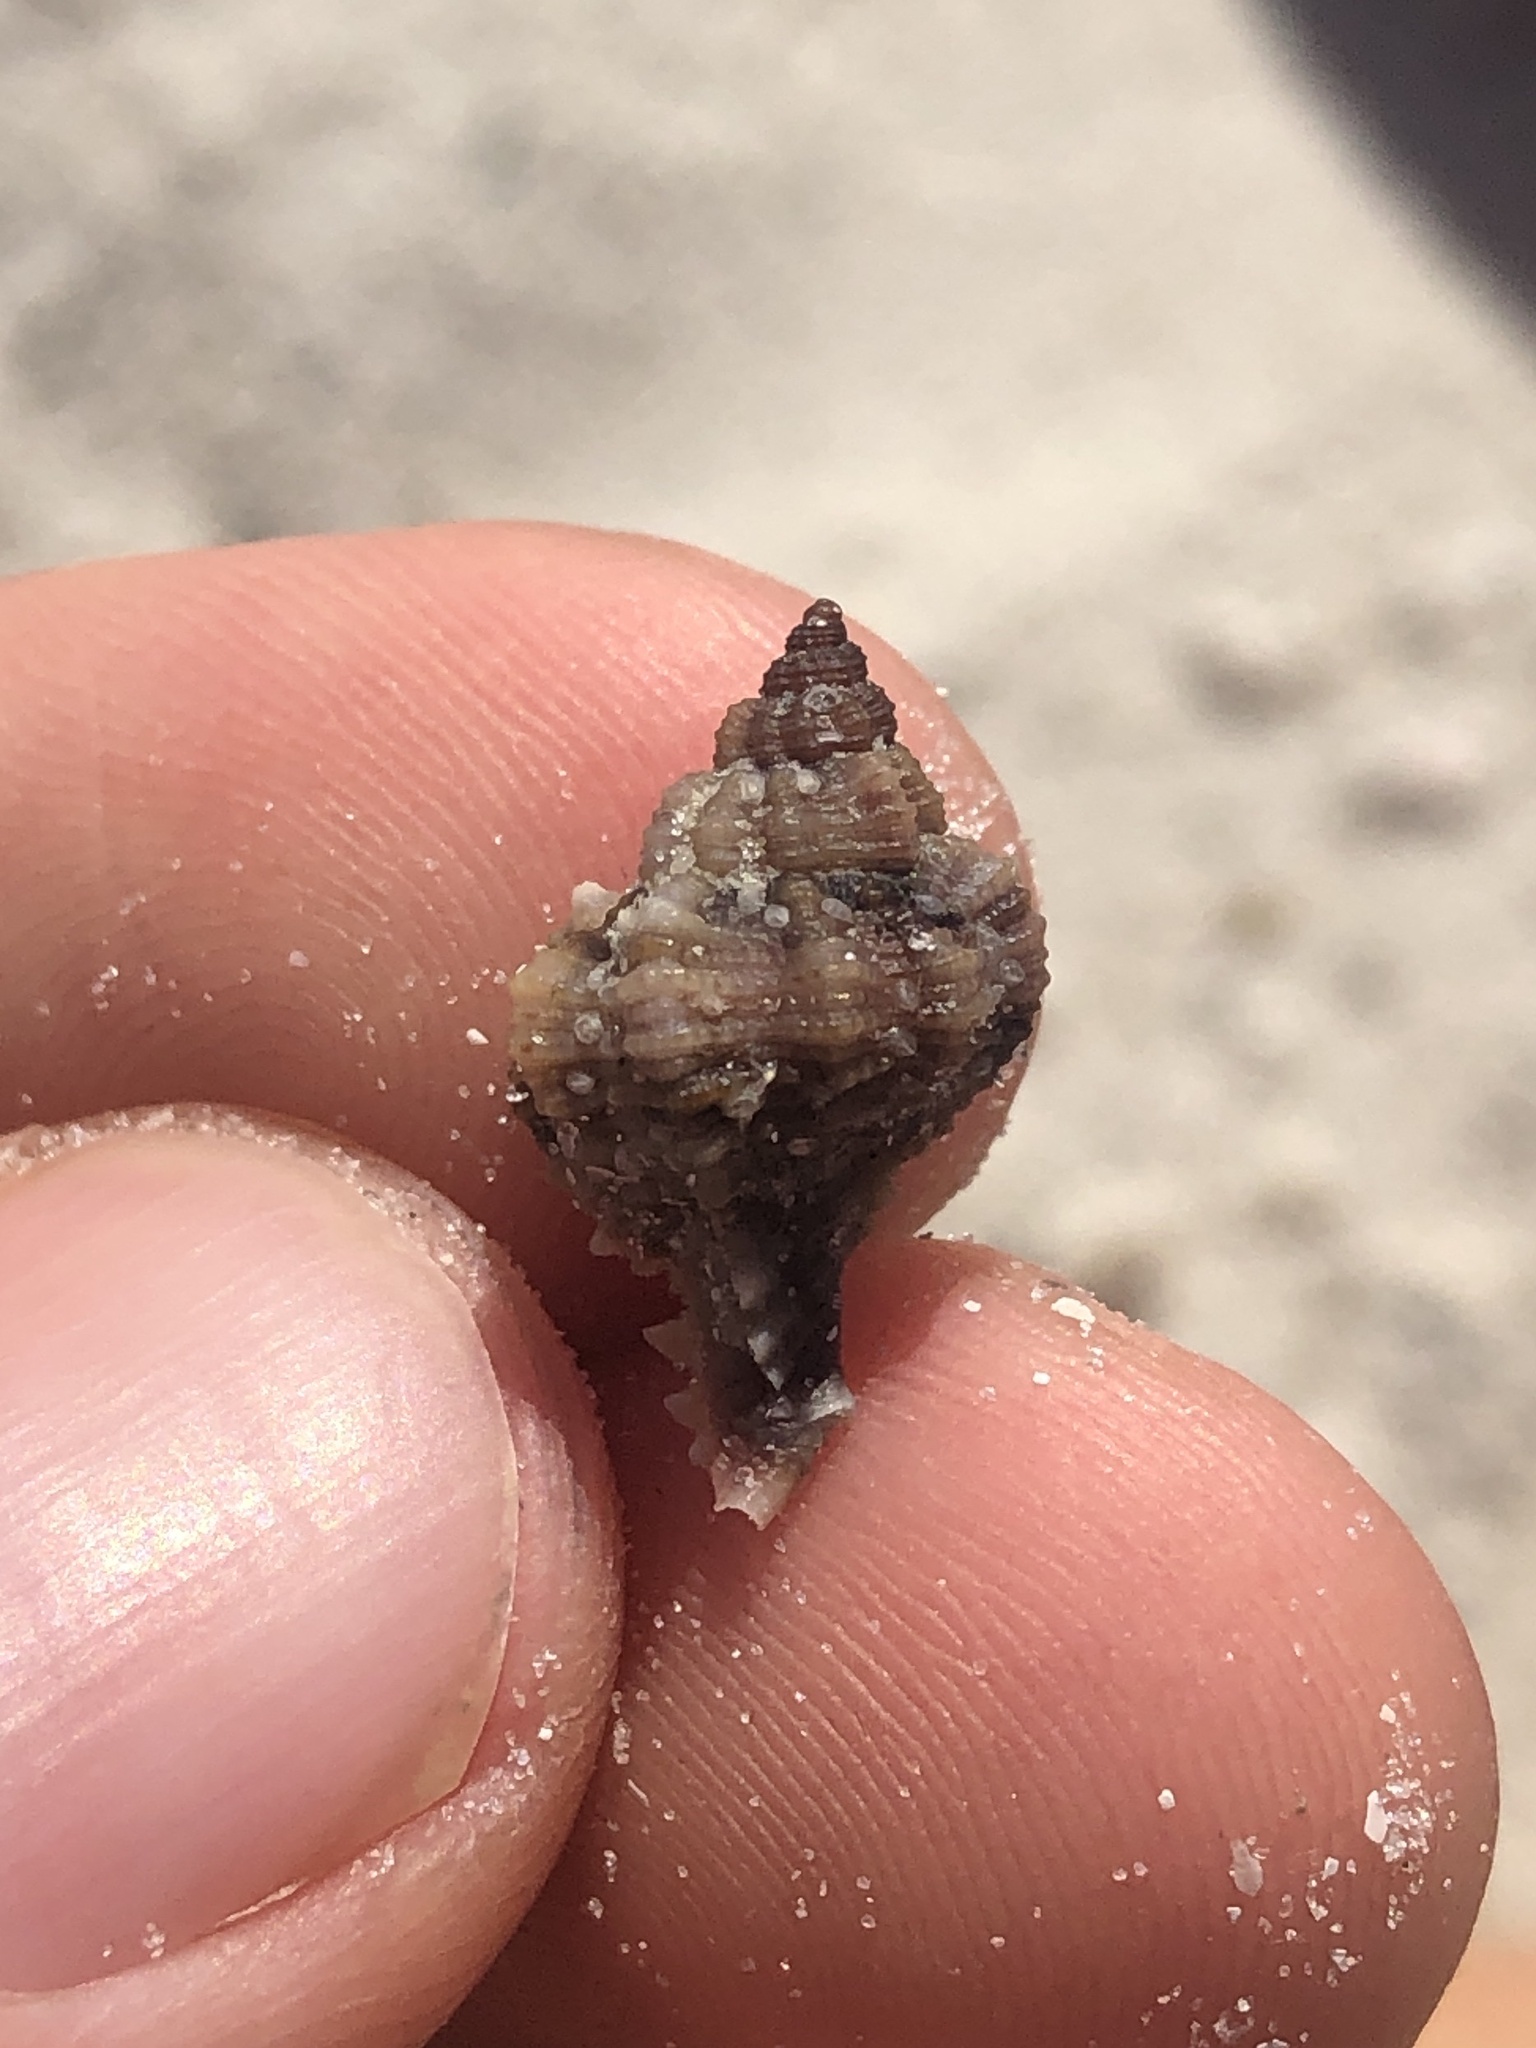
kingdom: Animalia
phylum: Mollusca
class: Gastropoda
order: Neogastropoda
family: Muricidae
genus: Phyllonotus
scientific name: Phyllonotus pomum
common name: Apple murex
